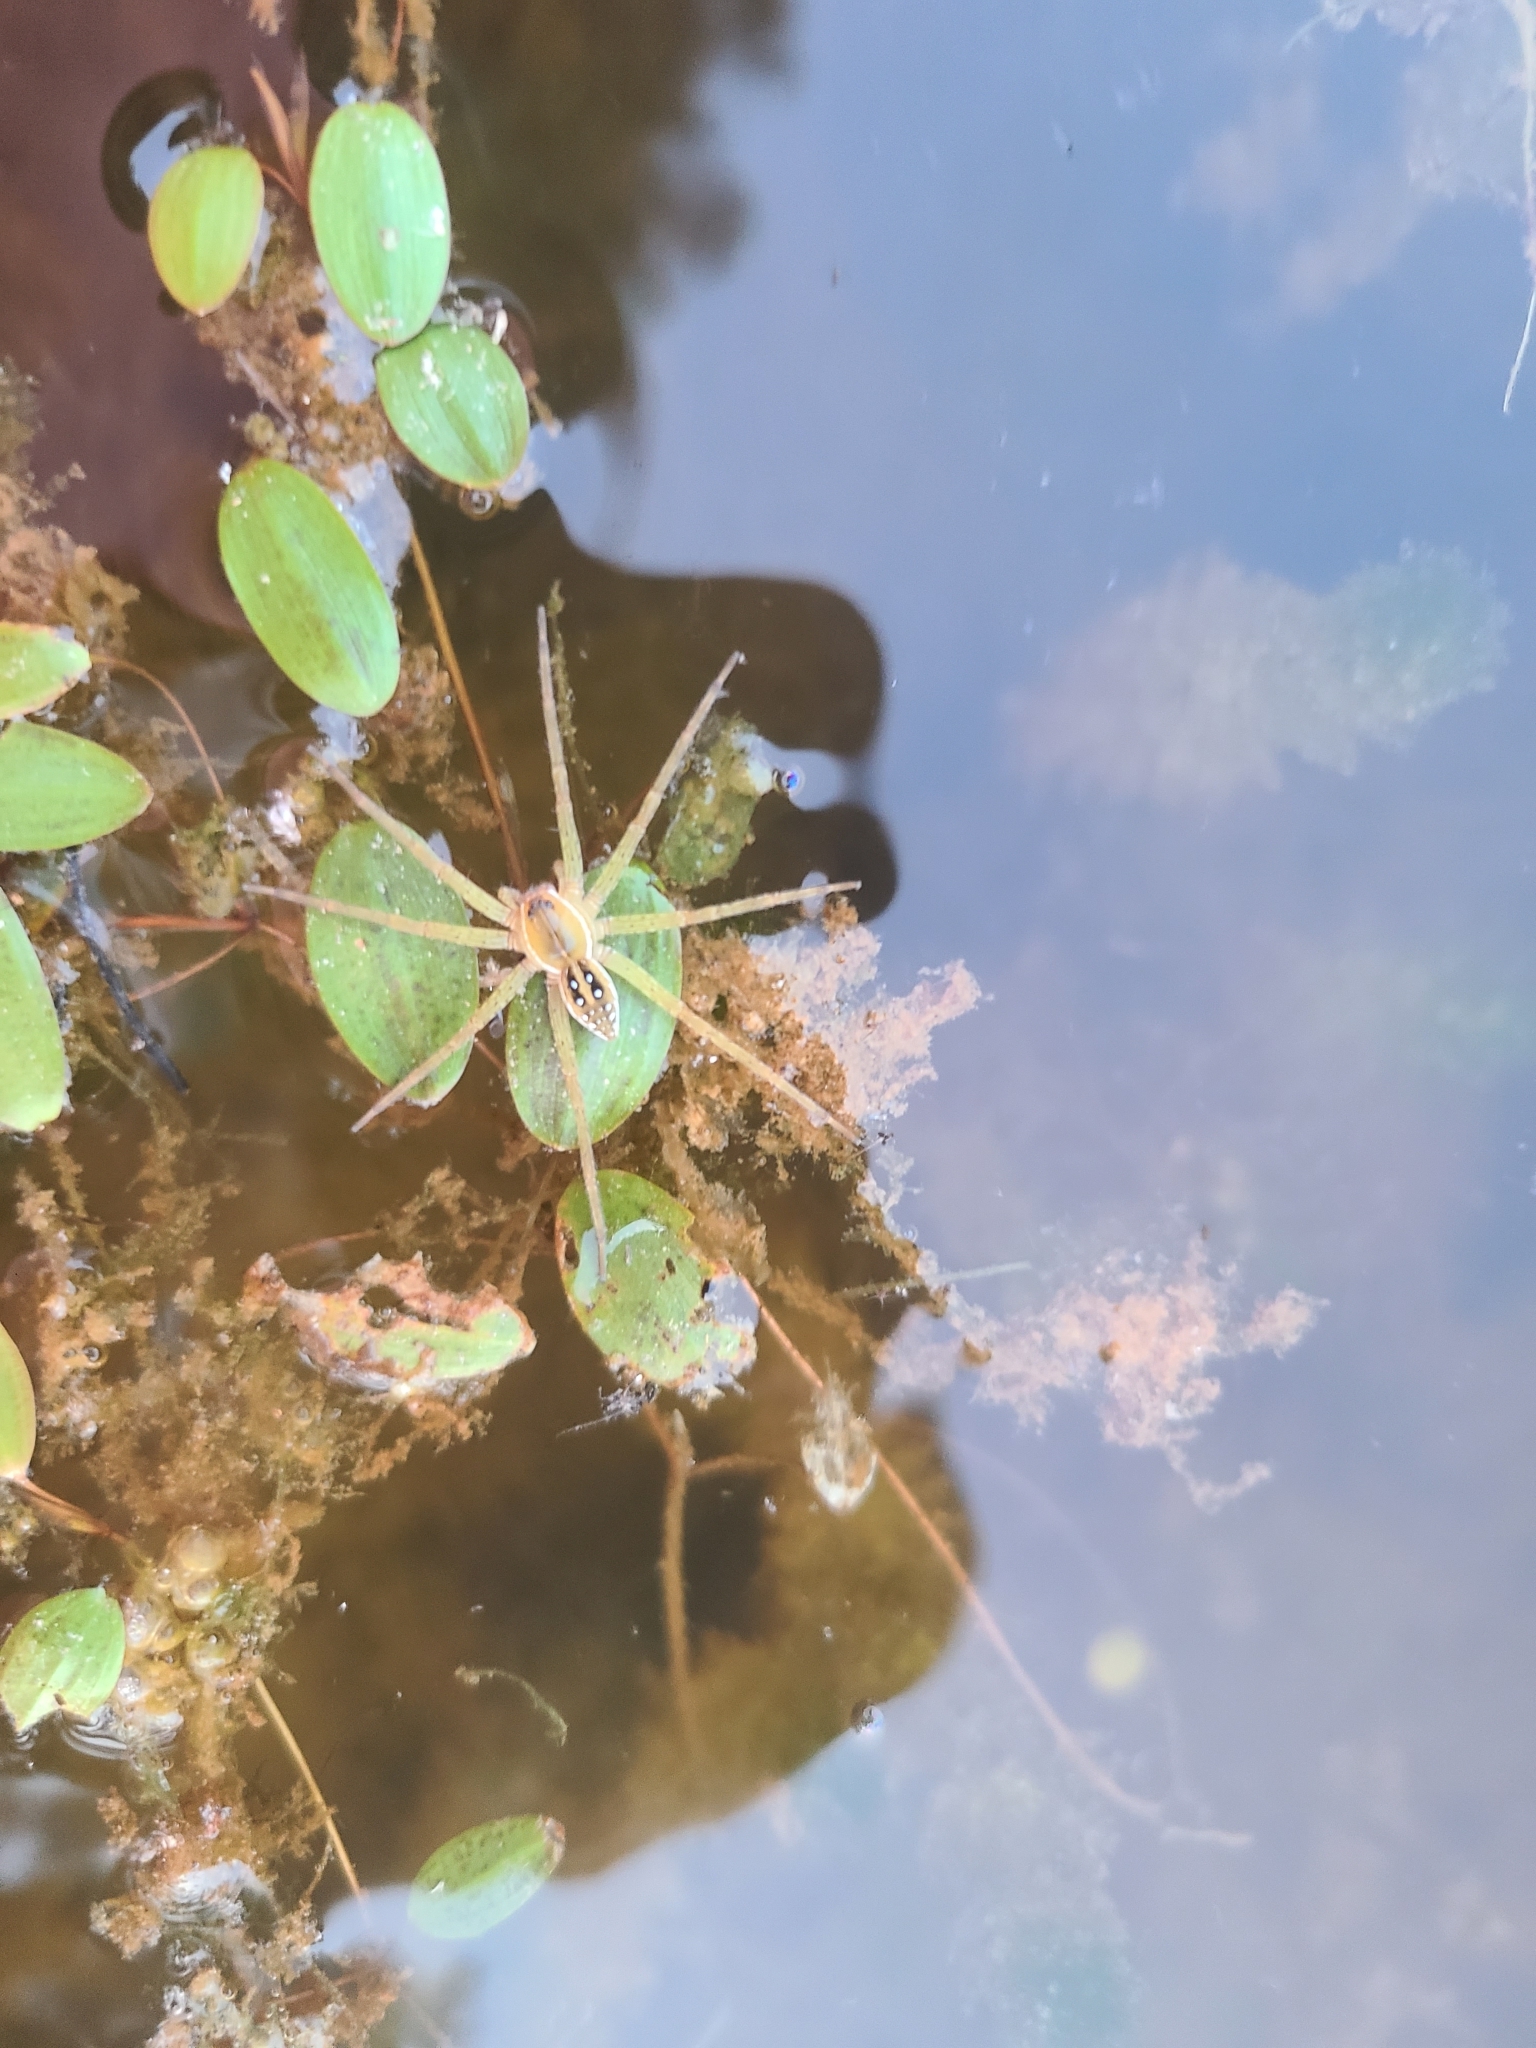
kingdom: Animalia
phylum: Arthropoda
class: Arachnida
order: Araneae
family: Pisauridae
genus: Dolomedes
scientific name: Dolomedes triton
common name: Six-spotted fishing spider
